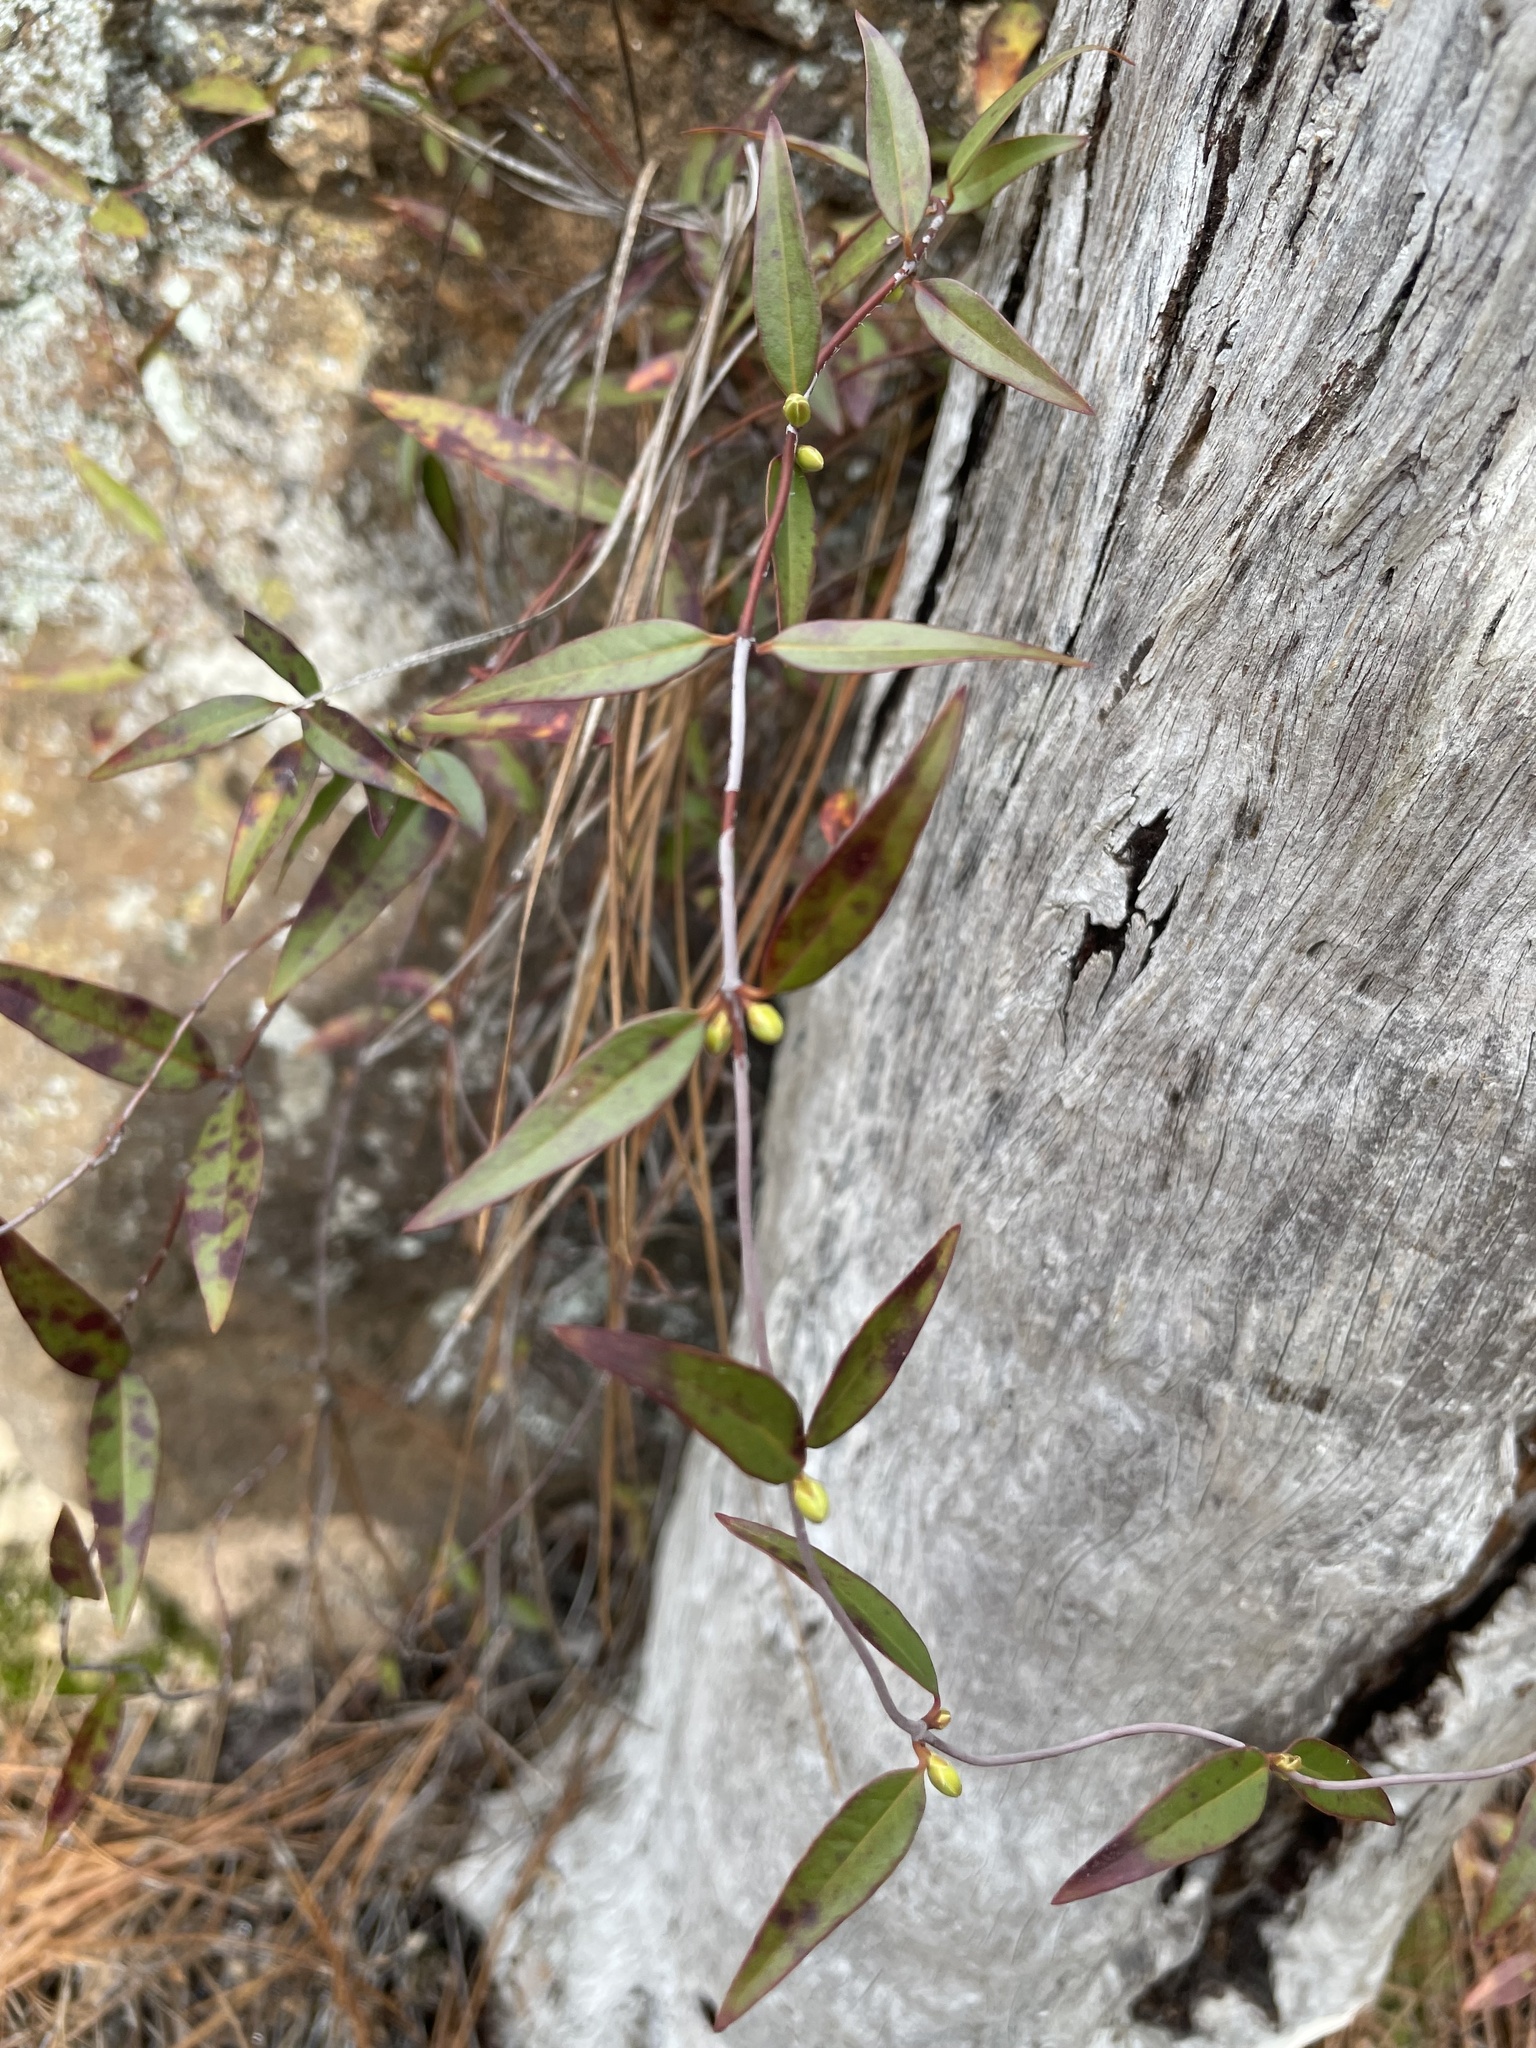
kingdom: Plantae
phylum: Tracheophyta
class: Magnoliopsida
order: Gentianales
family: Gelsemiaceae
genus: Gelsemium
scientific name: Gelsemium sempervirens
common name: Carolina-jasmine
